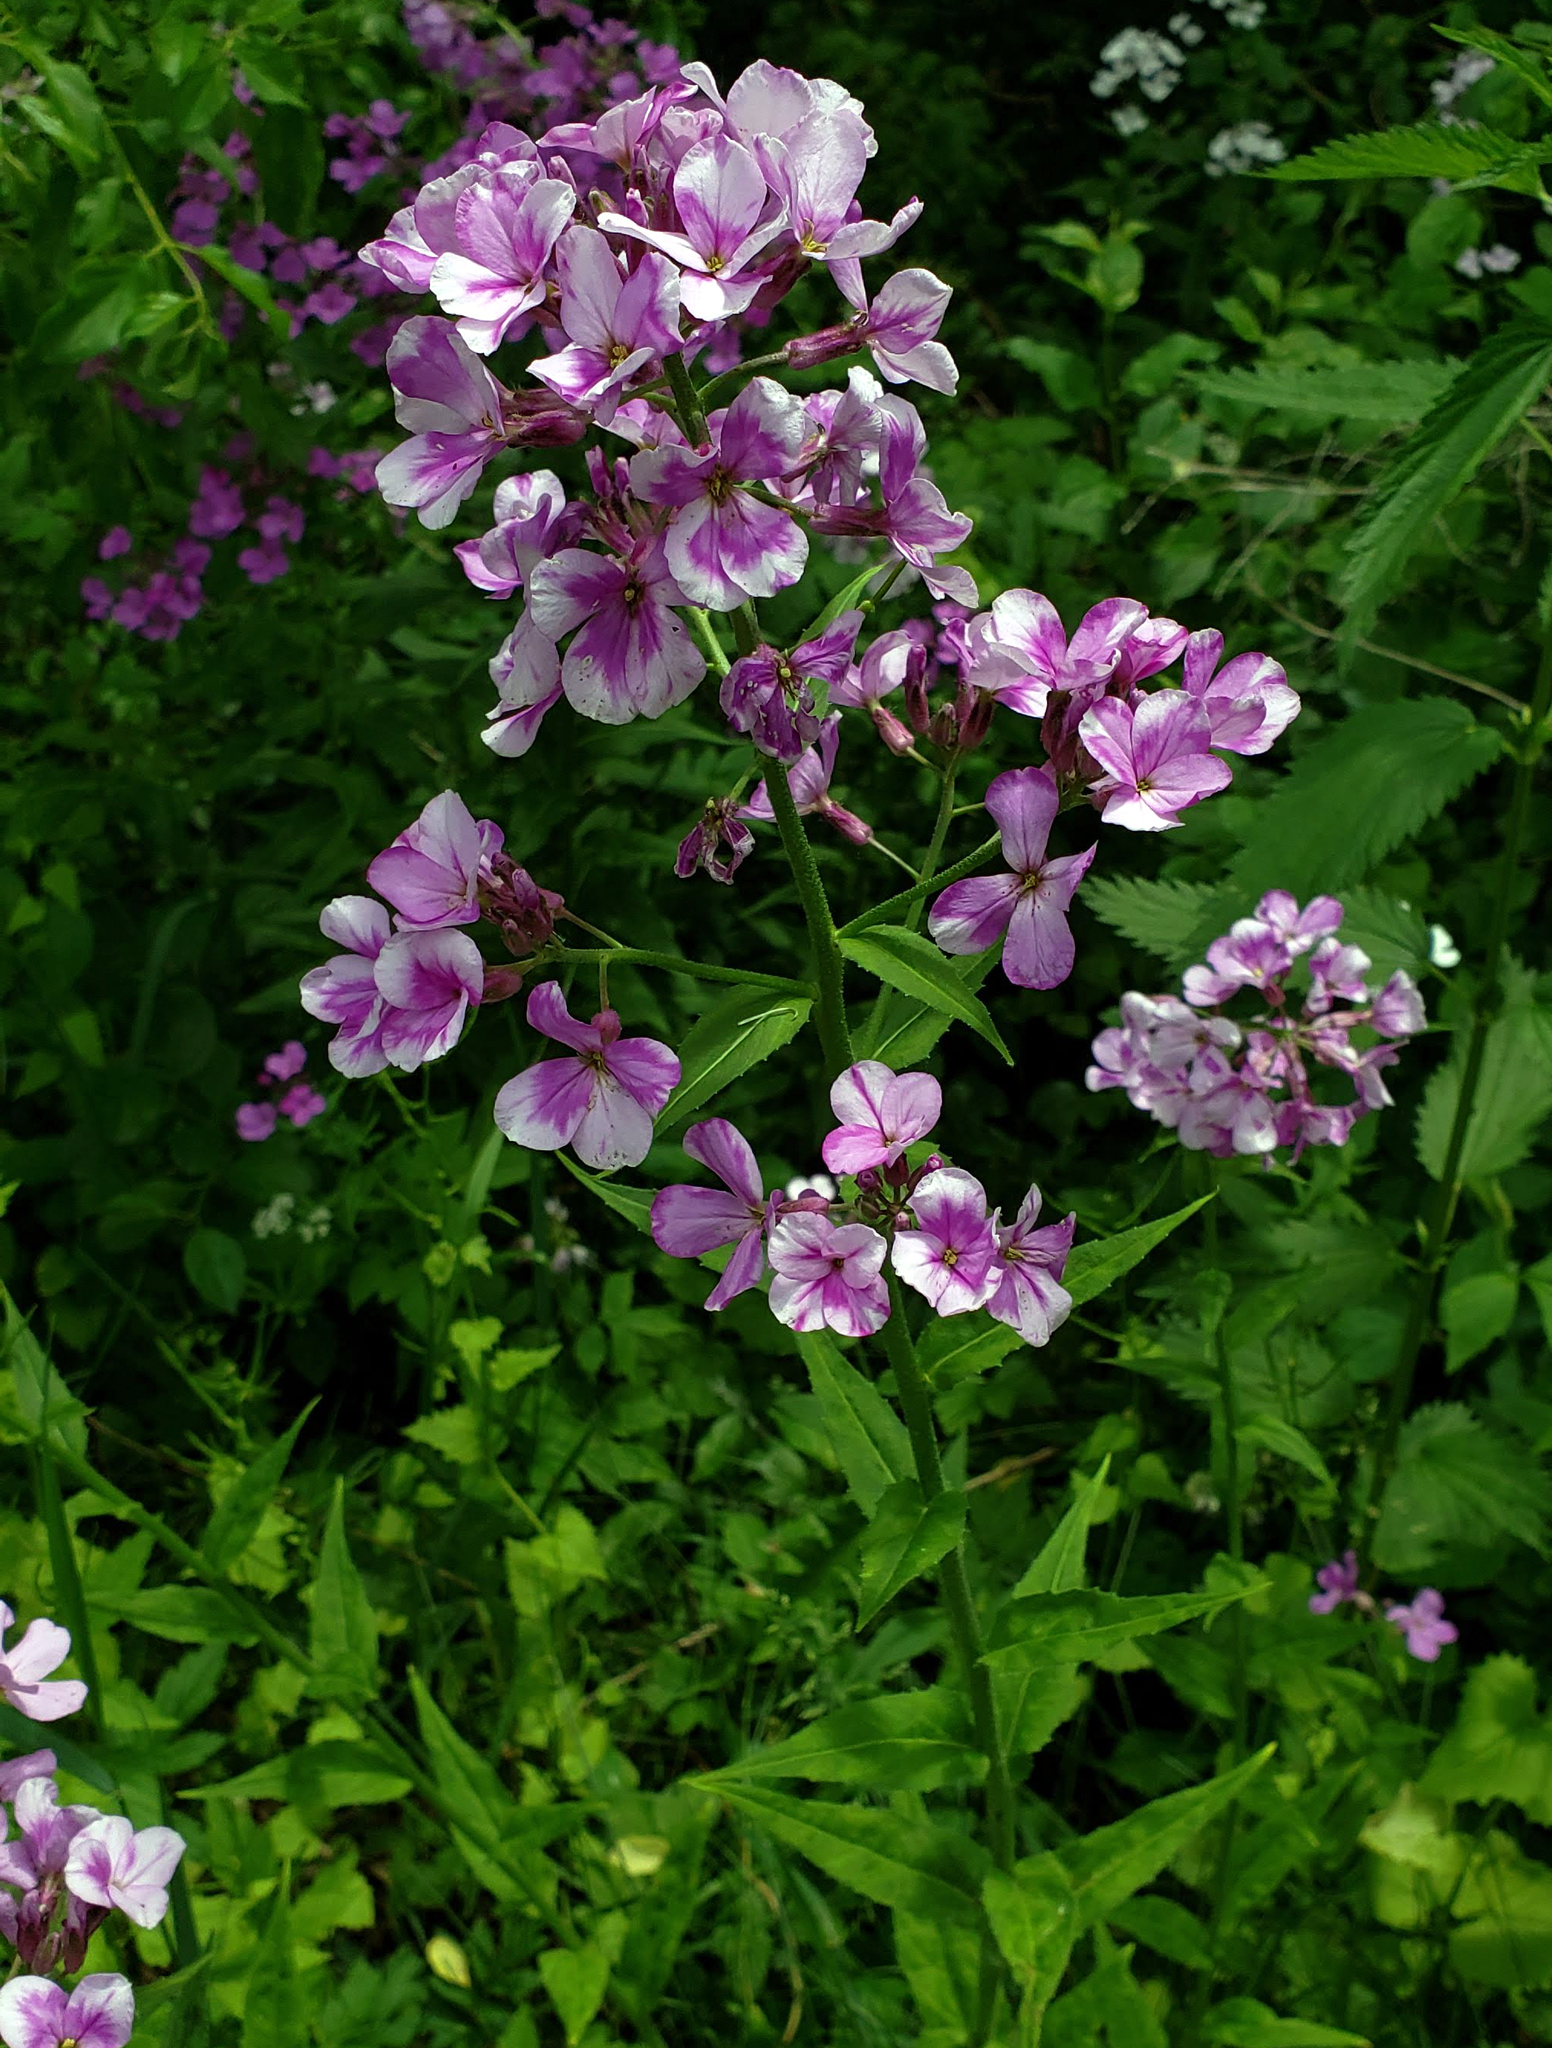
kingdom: Plantae
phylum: Tracheophyta
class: Magnoliopsida
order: Brassicales
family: Brassicaceae
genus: Hesperis
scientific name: Hesperis matronalis
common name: Dame's-violet
